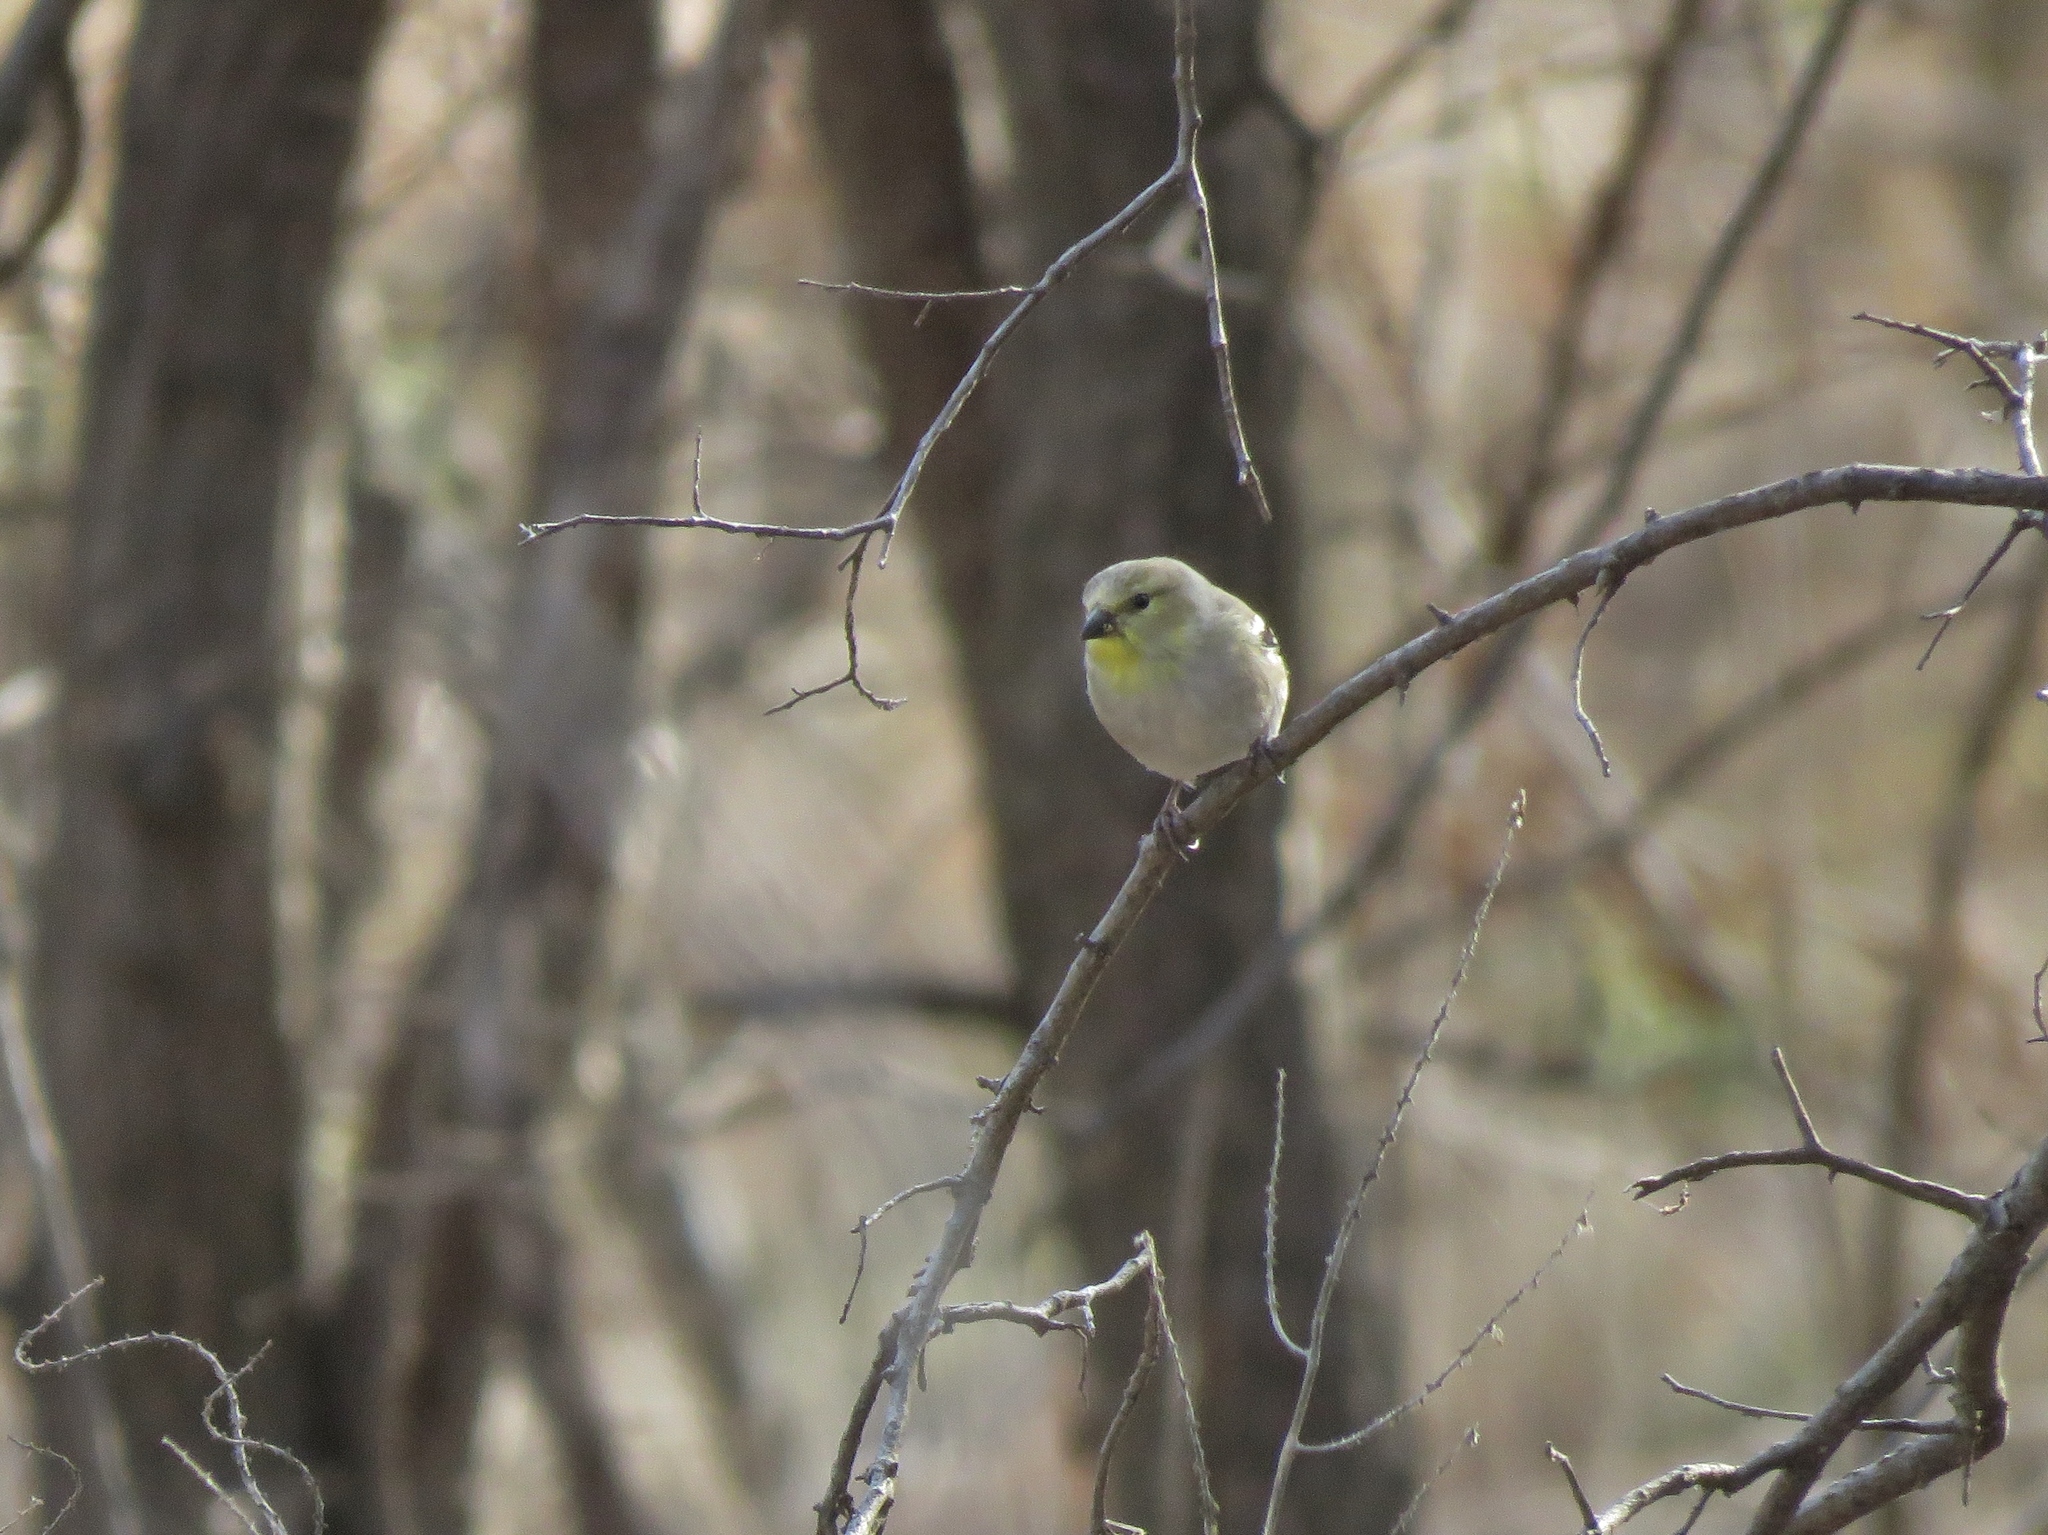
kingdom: Animalia
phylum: Chordata
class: Aves
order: Passeriformes
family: Fringillidae
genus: Spinus
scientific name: Spinus tristis
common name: American goldfinch
